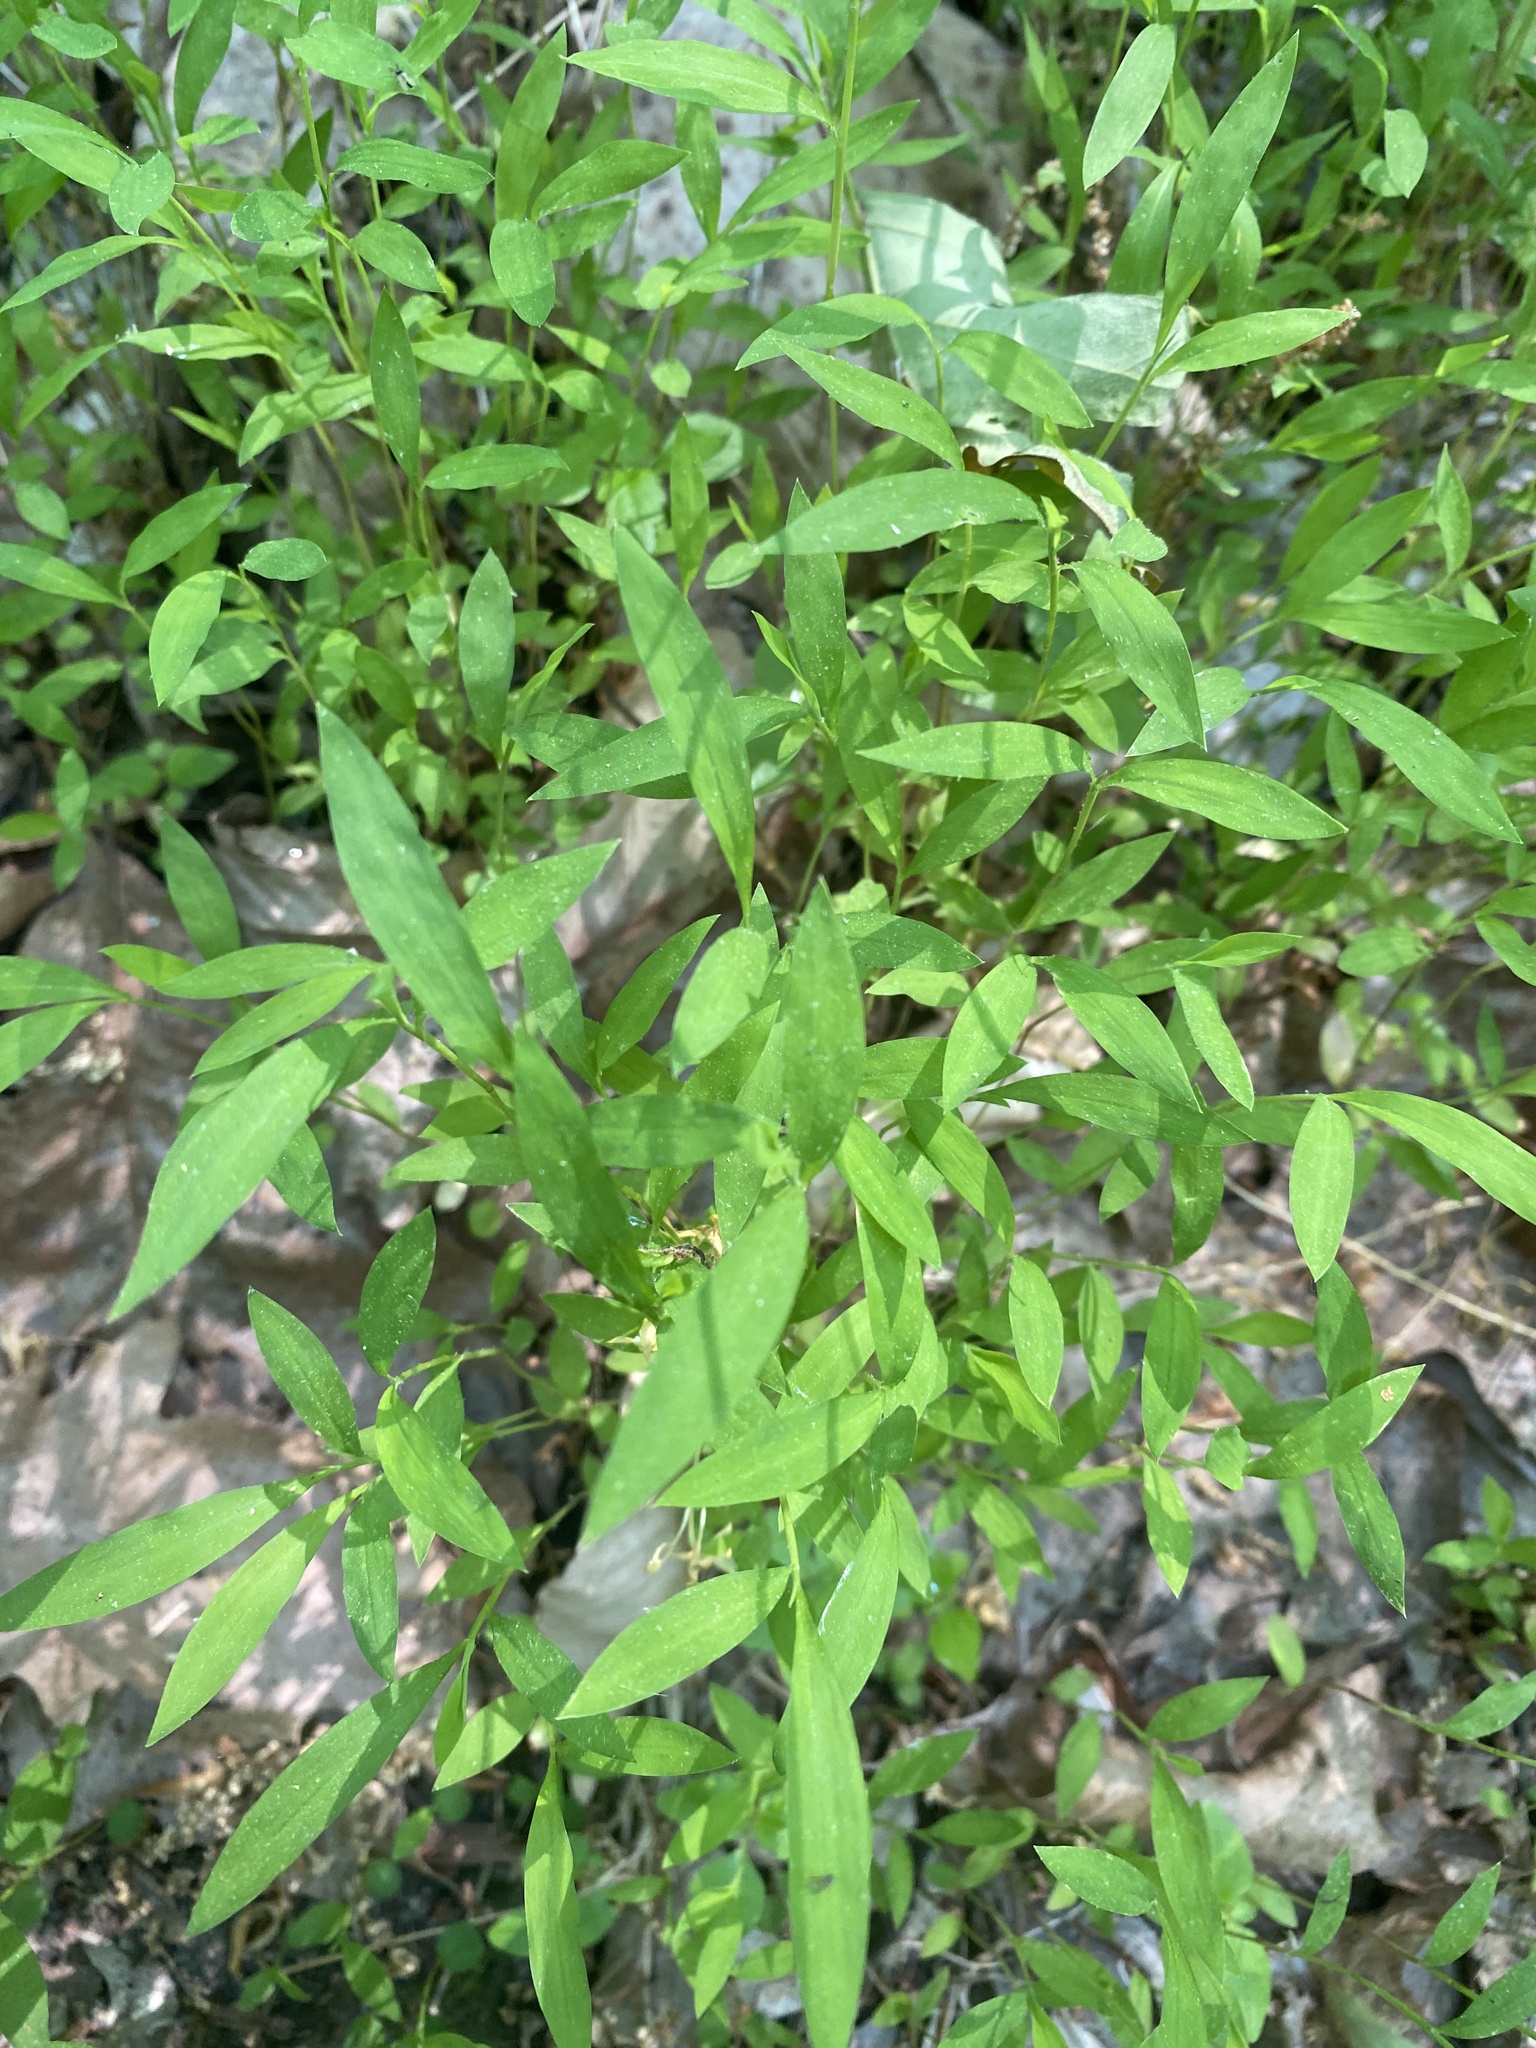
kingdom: Plantae
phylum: Tracheophyta
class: Liliopsida
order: Poales
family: Poaceae
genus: Microstegium
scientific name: Microstegium vimineum
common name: Japanese stiltgrass
